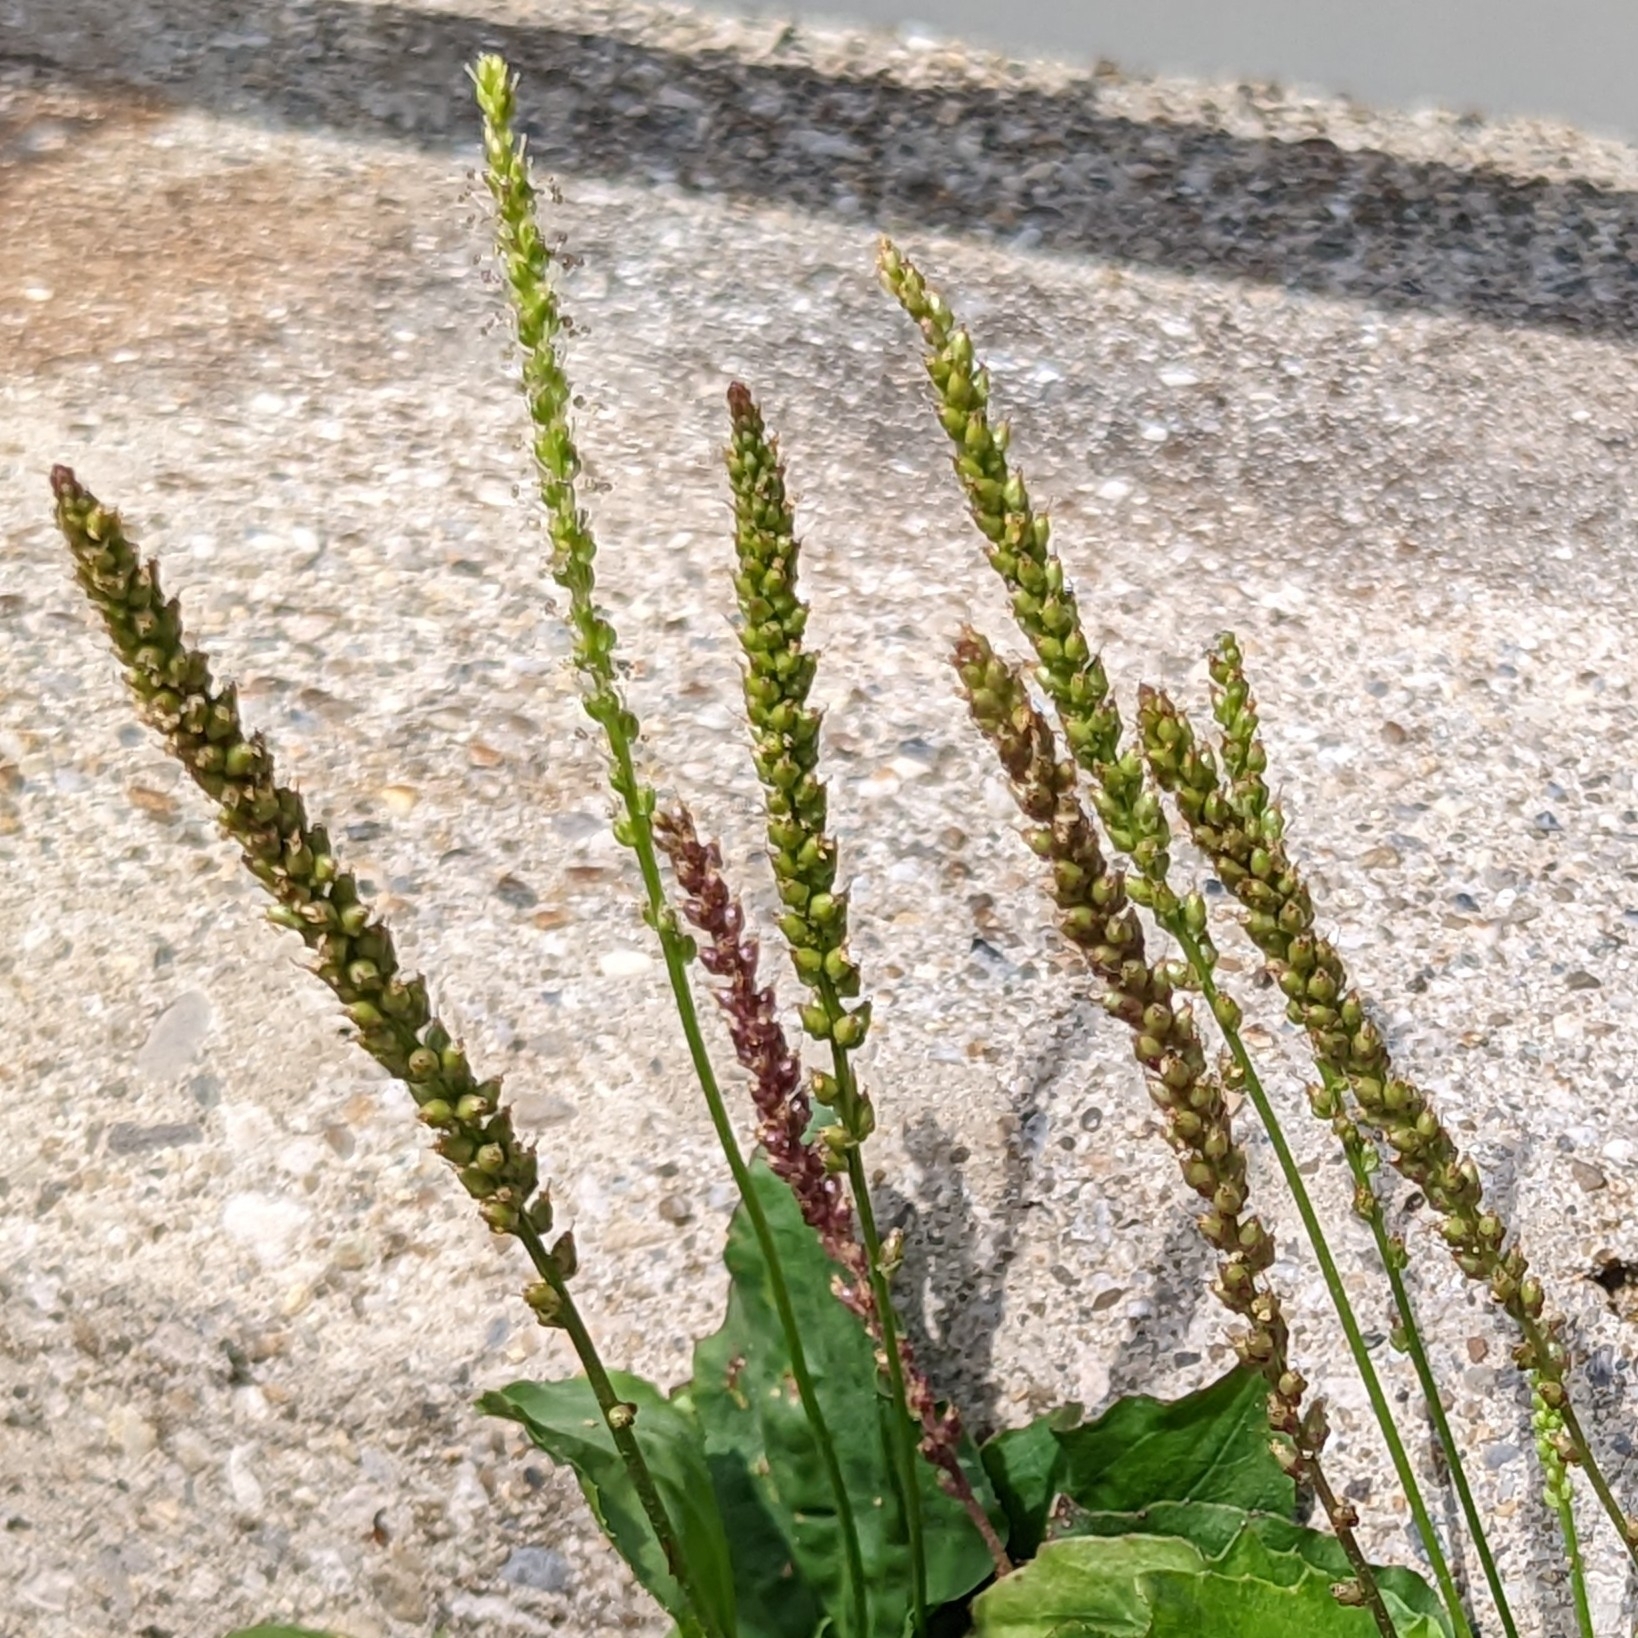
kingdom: Plantae
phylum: Tracheophyta
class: Magnoliopsida
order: Lamiales
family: Plantaginaceae
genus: Plantago
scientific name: Plantago major
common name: Common plantain
